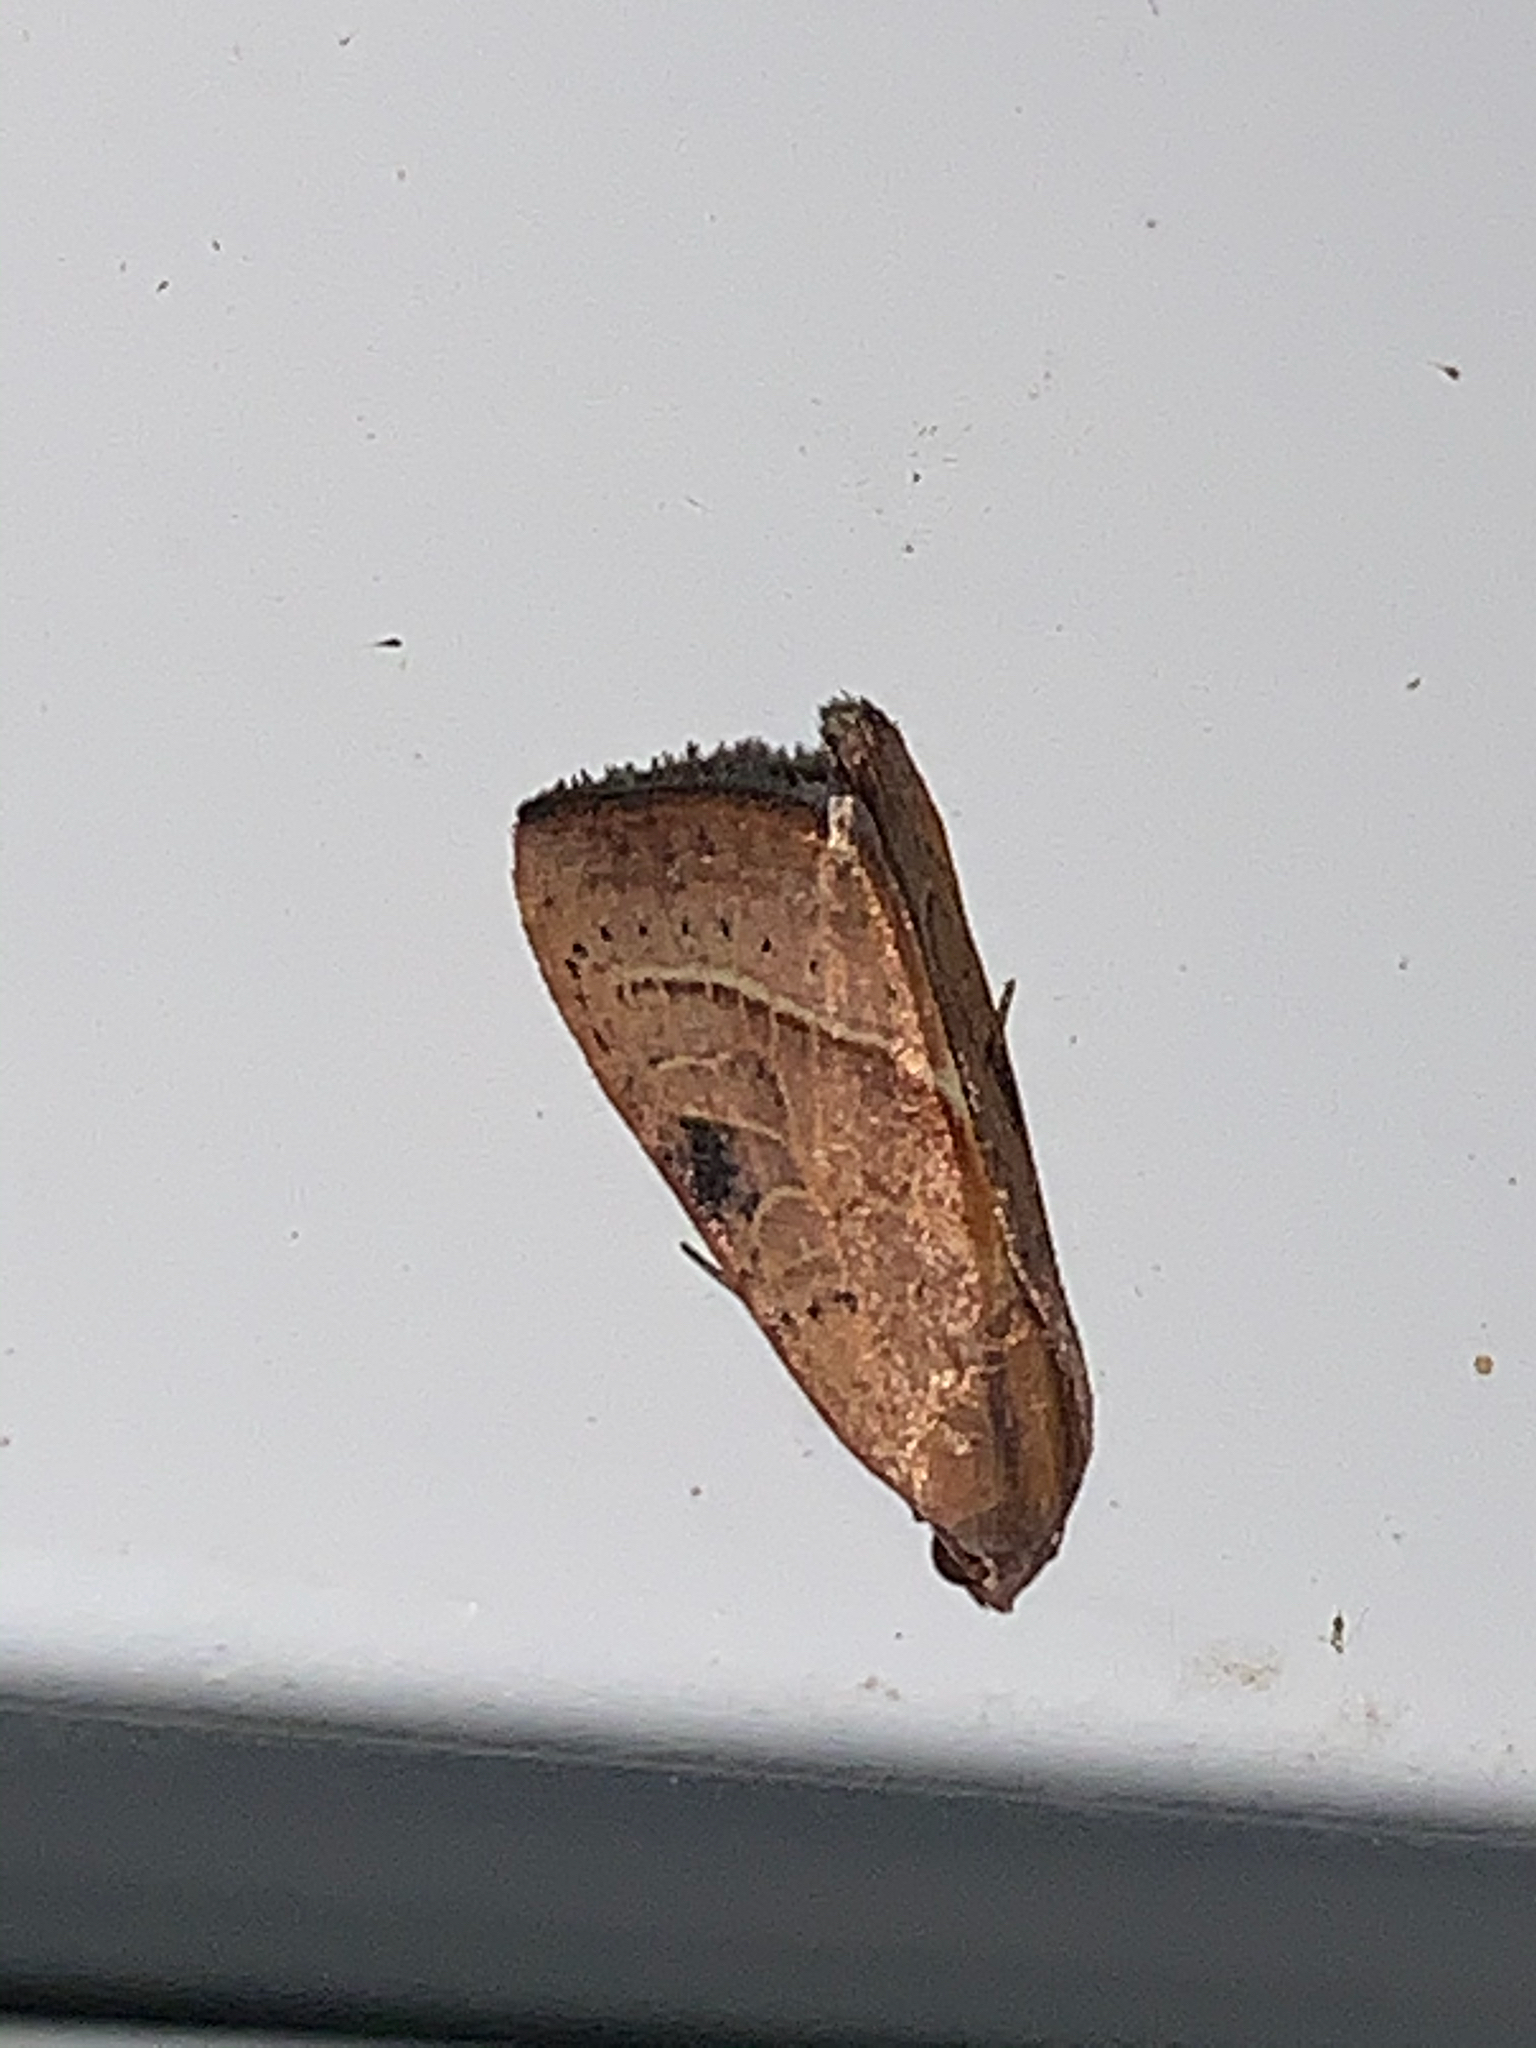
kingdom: Animalia
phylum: Arthropoda
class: Insecta
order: Lepidoptera
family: Noctuidae
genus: Galgula
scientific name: Galgula partita
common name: Wedgeling
